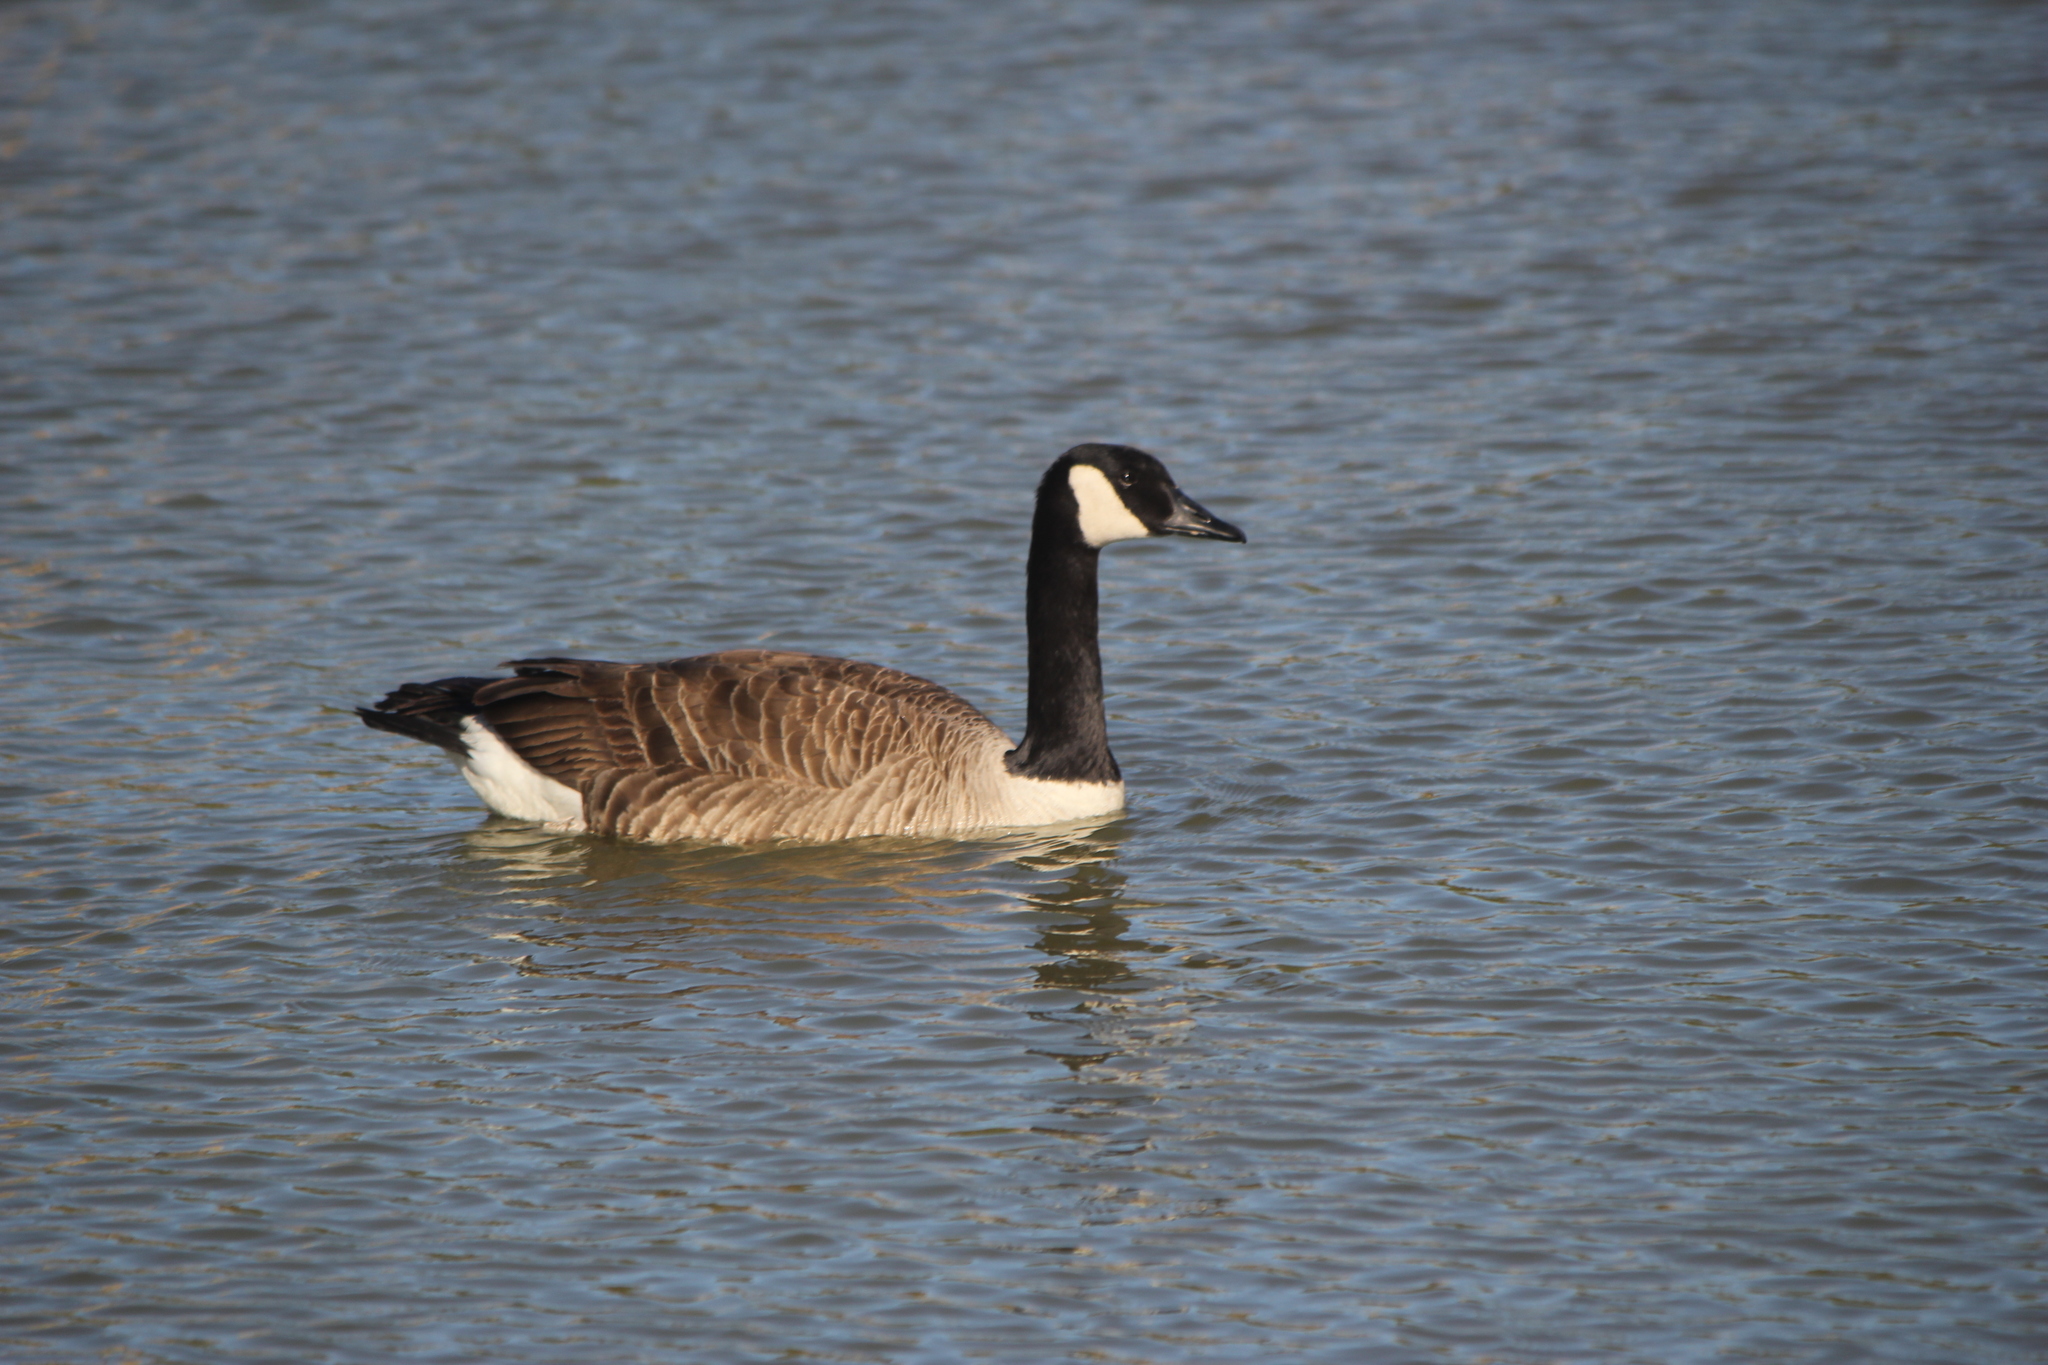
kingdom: Animalia
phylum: Chordata
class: Aves
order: Anseriformes
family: Anatidae
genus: Branta
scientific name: Branta canadensis
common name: Canada goose
